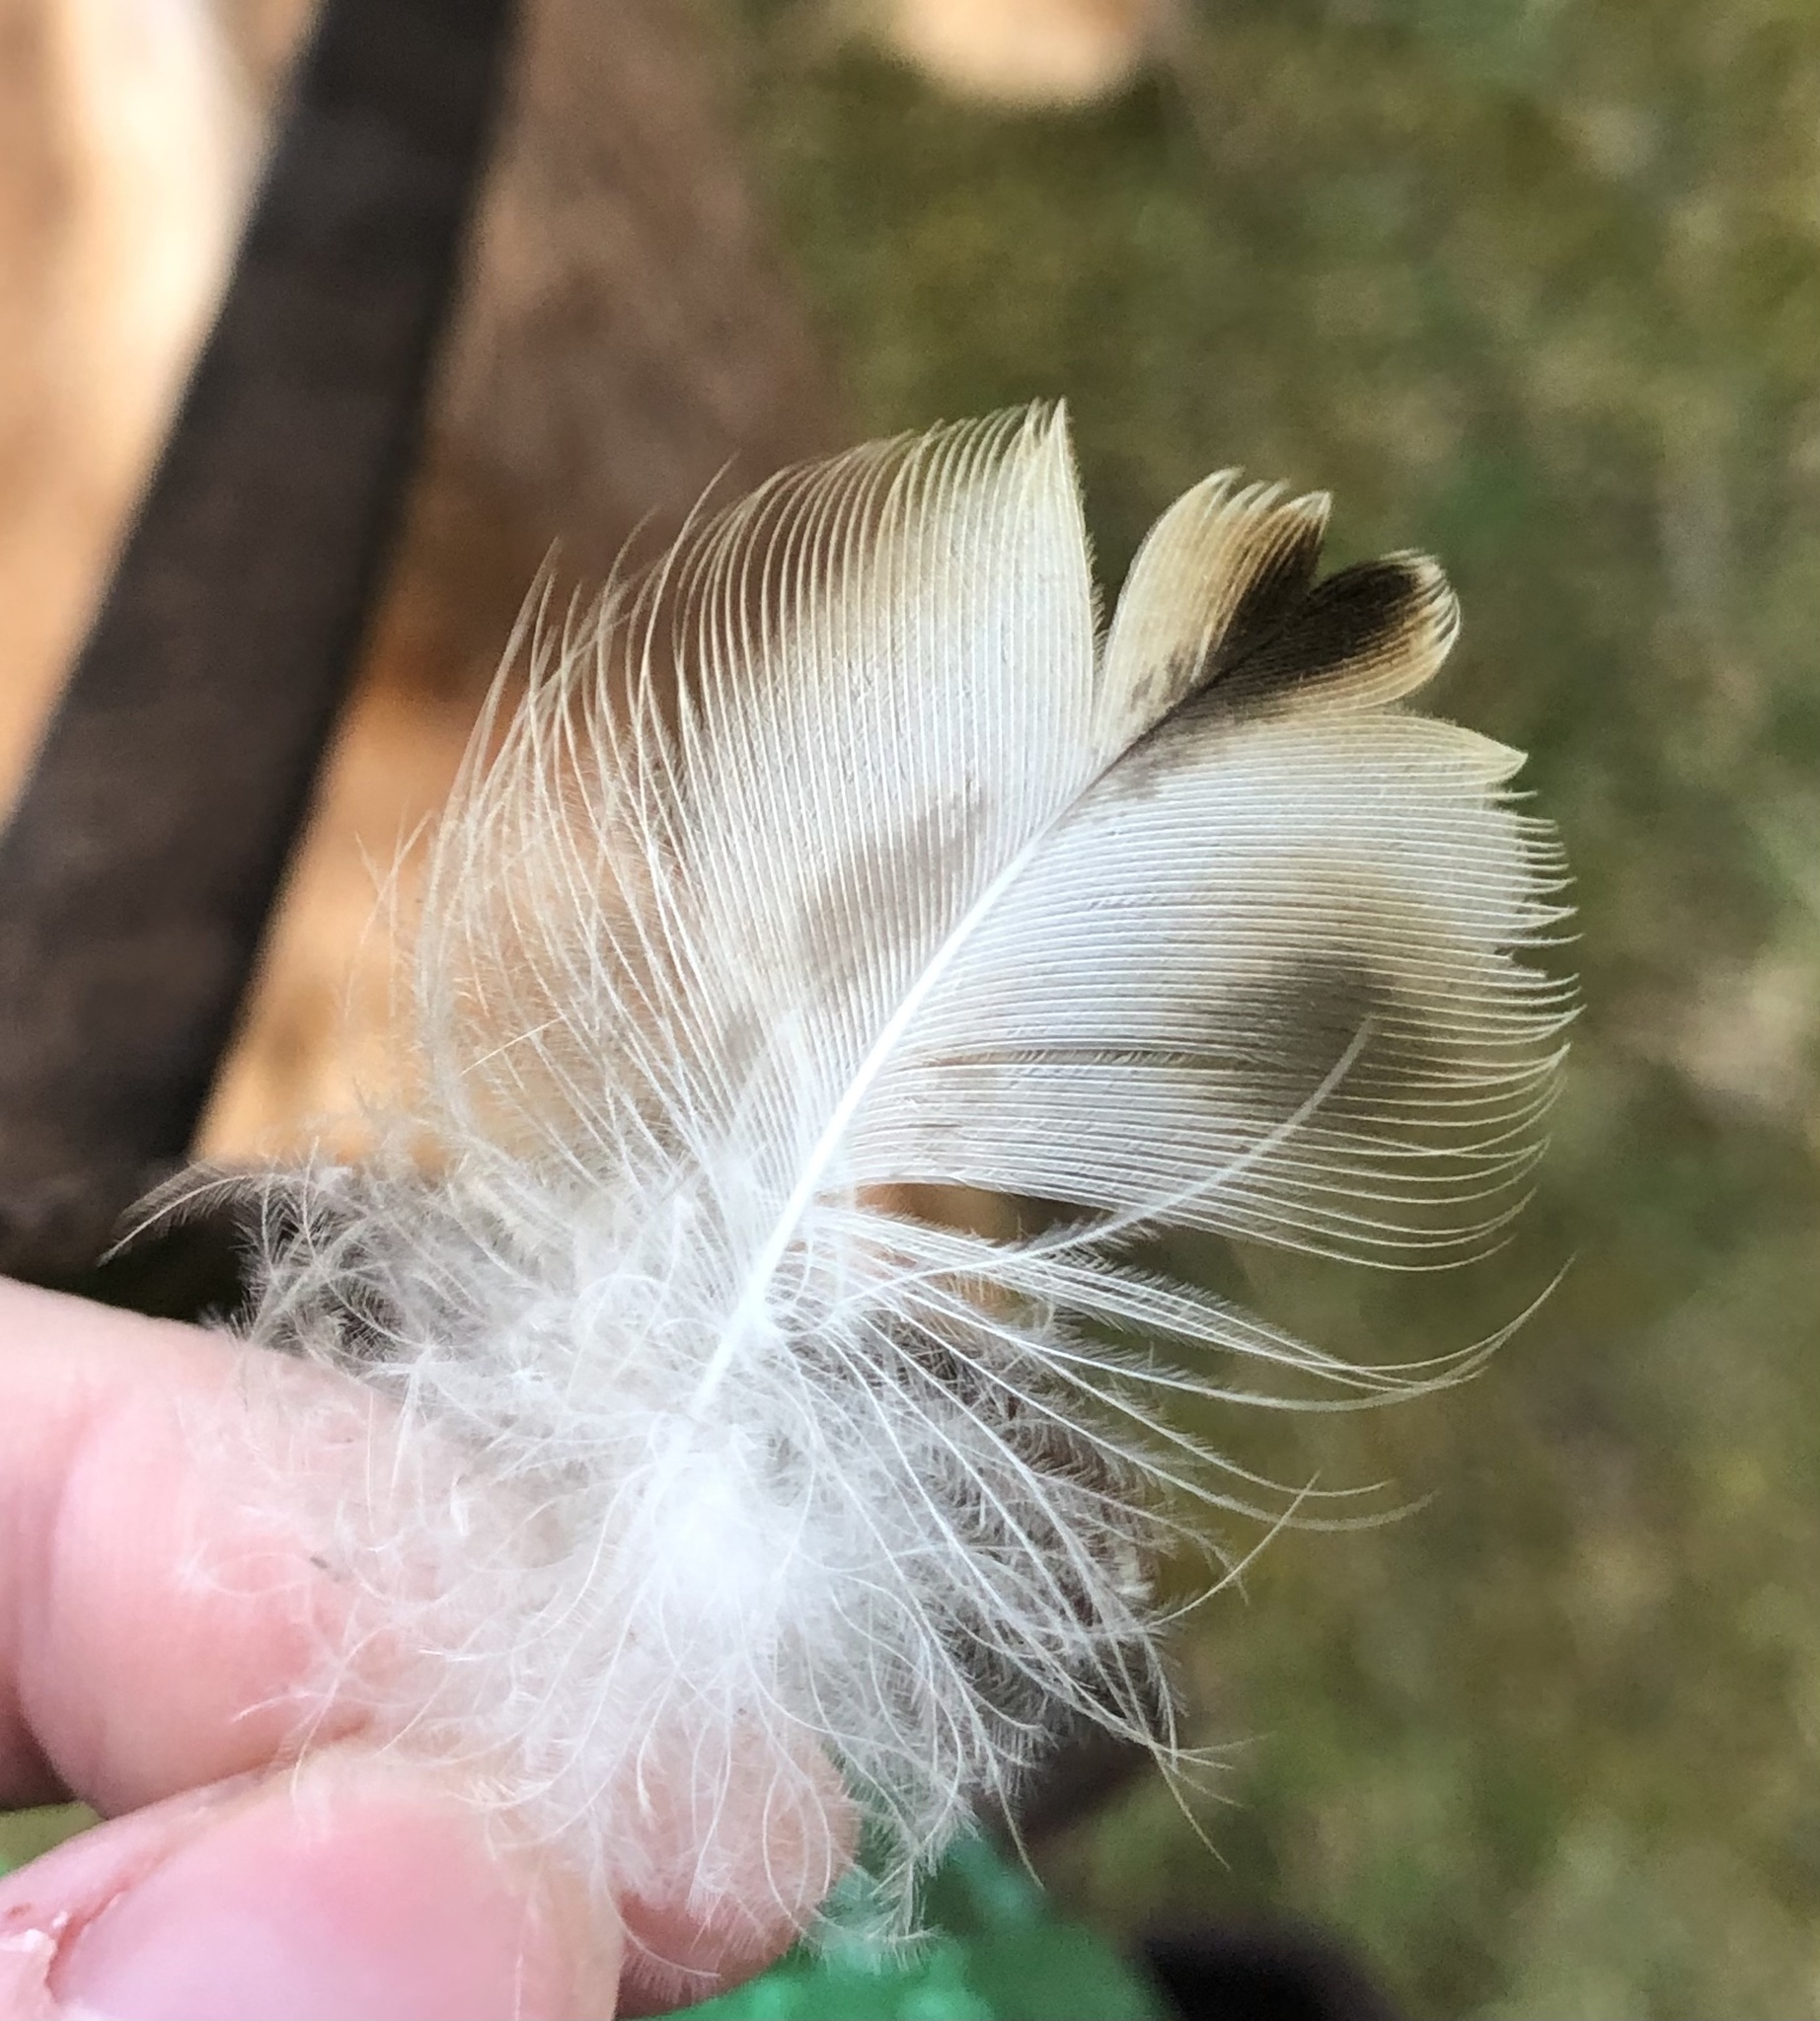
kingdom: Animalia
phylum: Chordata
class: Aves
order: Anseriformes
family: Anatidae
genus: Anas
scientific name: Anas platyrhynchos
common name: Mallard
